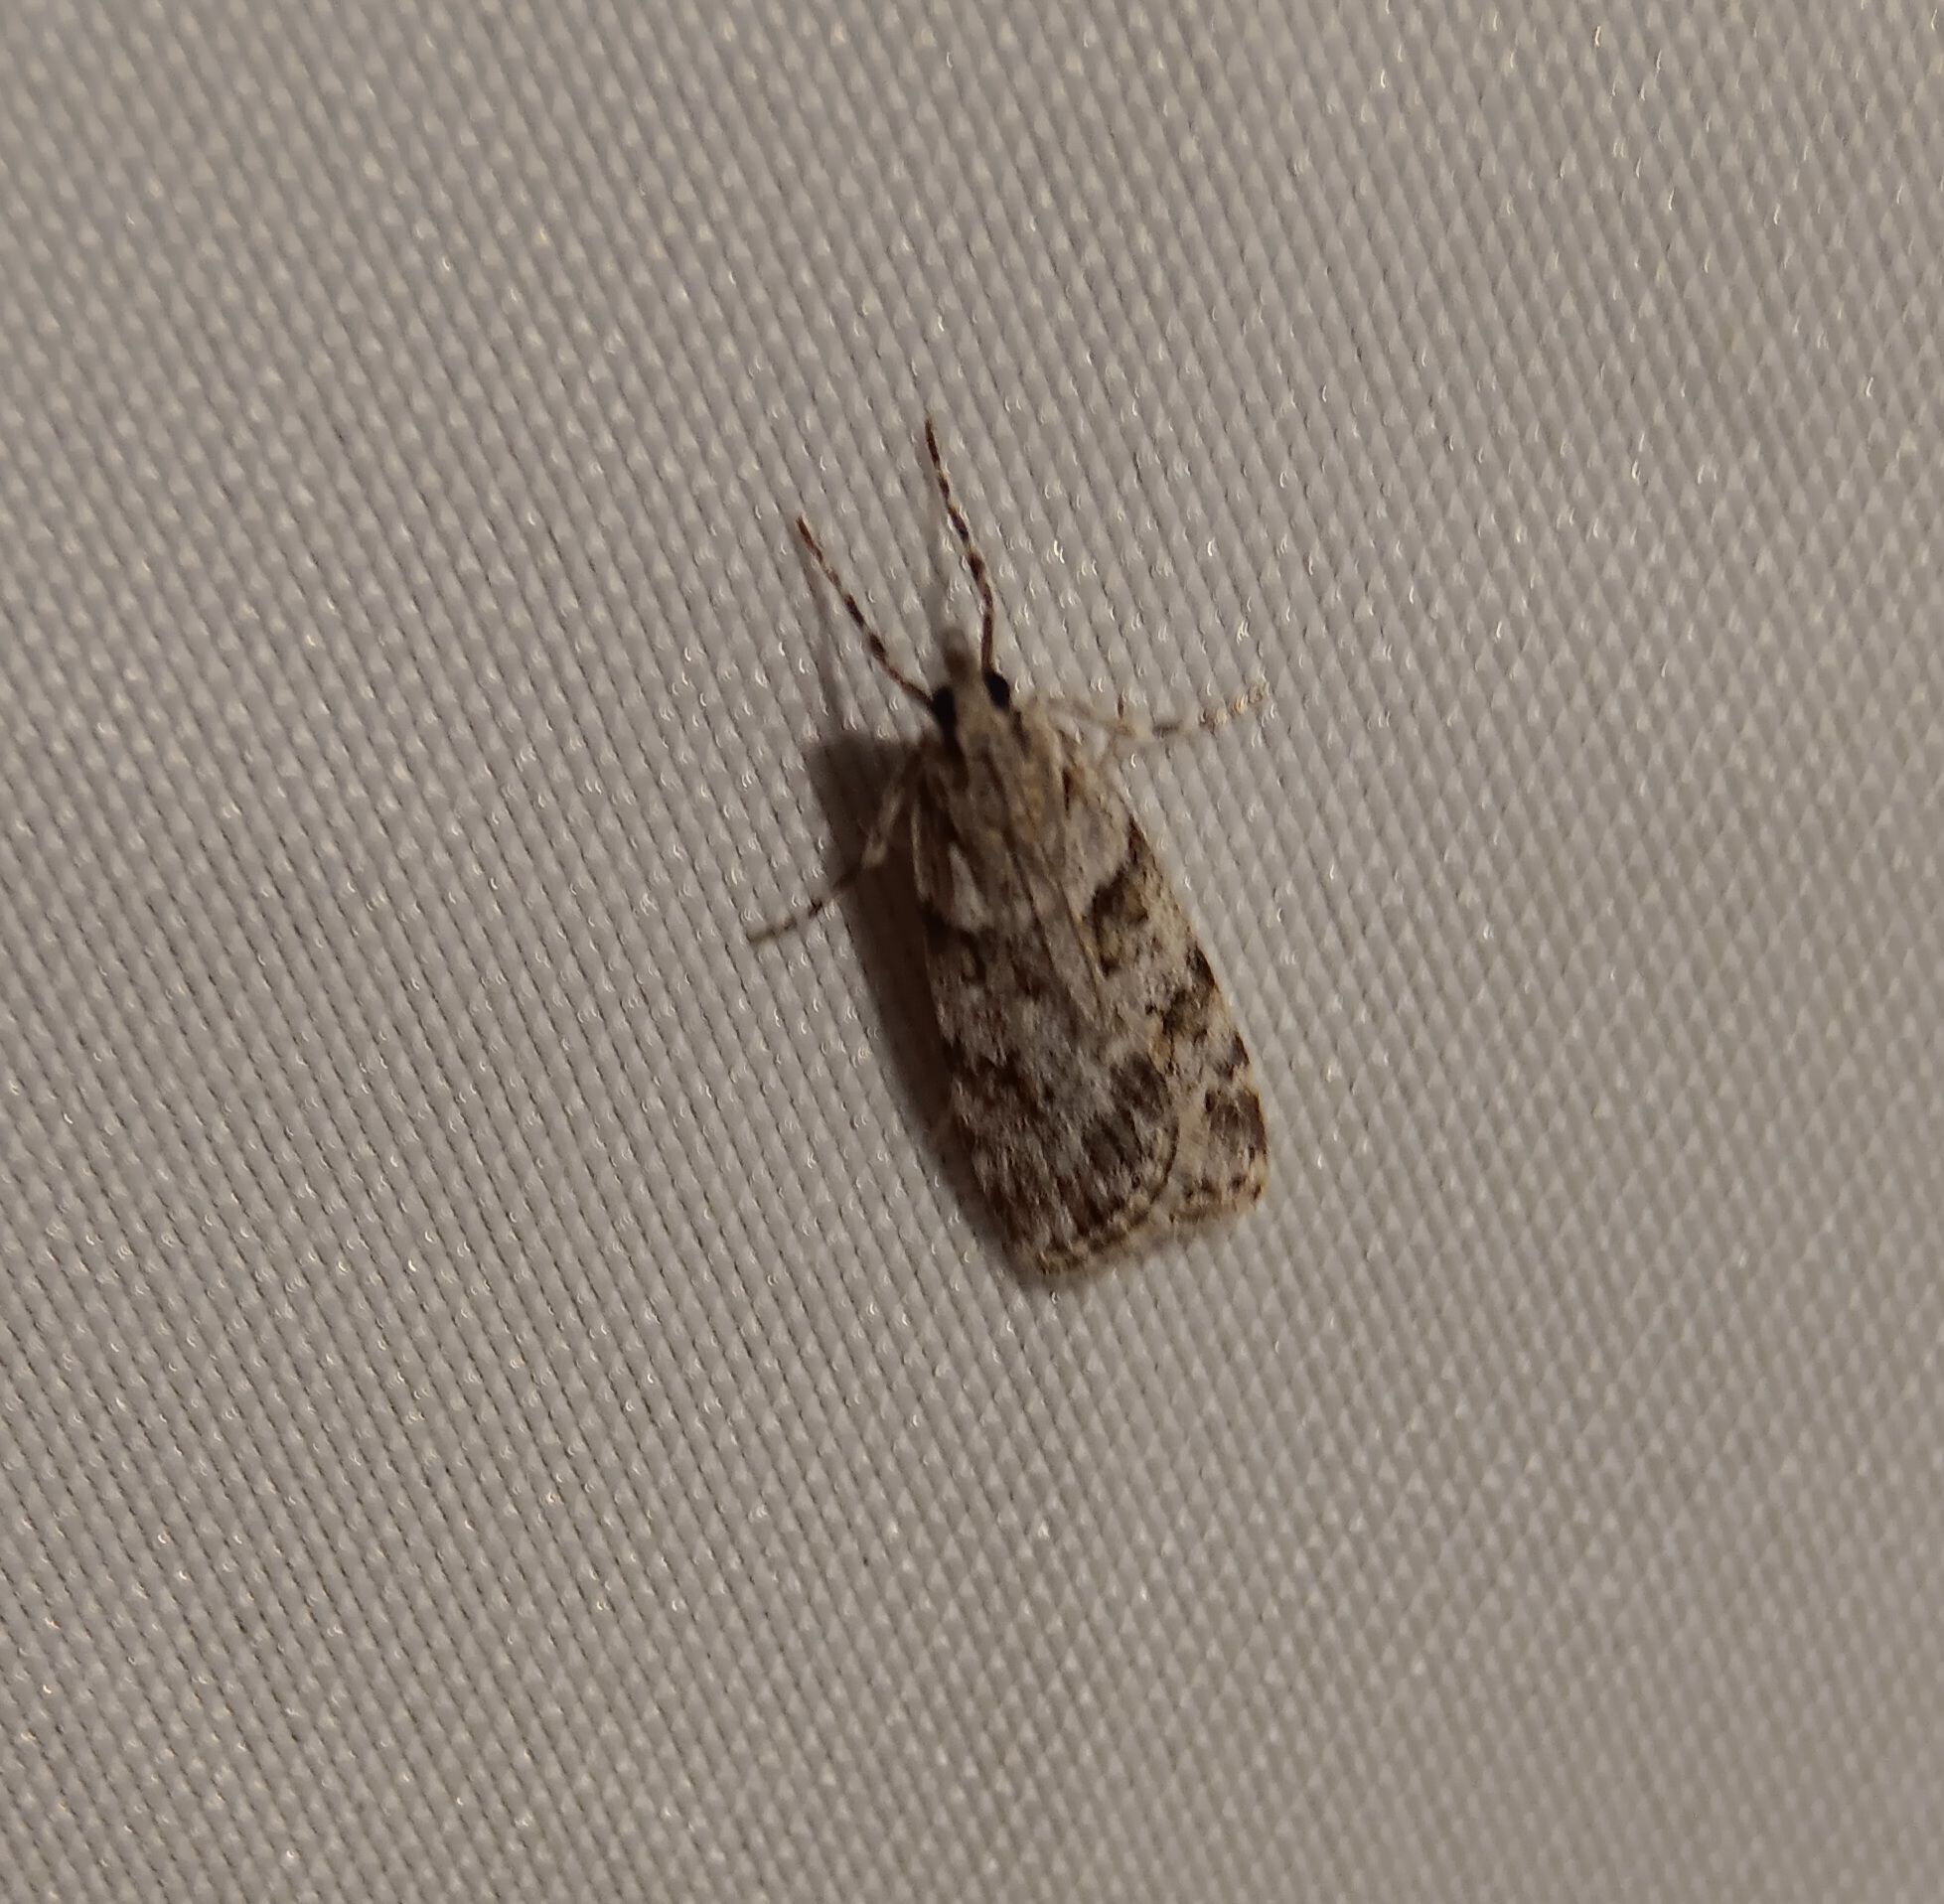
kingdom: Animalia
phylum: Arthropoda
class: Insecta
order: Lepidoptera
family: Crambidae
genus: Scoparia
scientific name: Scoparia biplagialis
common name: Double-striped scoparia moth
